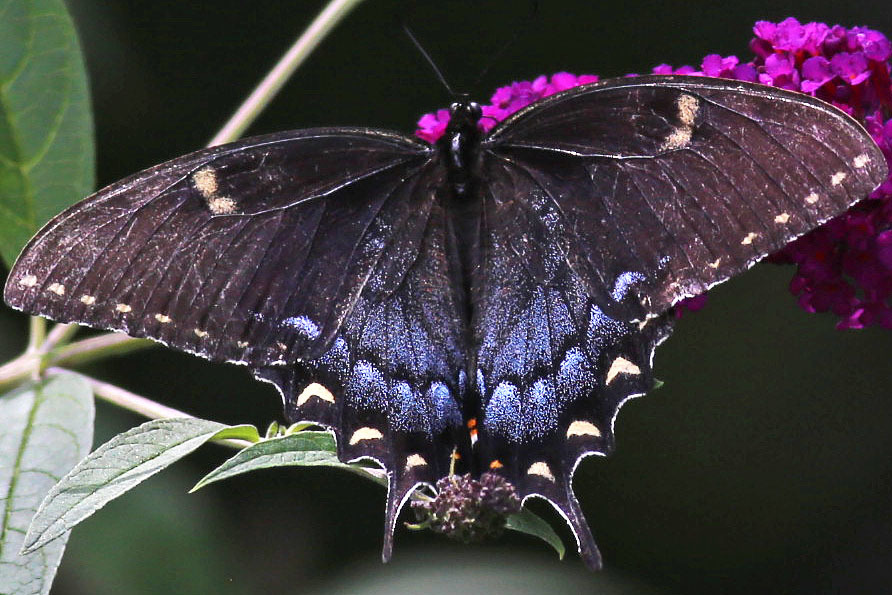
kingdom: Animalia
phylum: Arthropoda
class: Insecta
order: Lepidoptera
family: Papilionidae
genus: Papilio
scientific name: Papilio glaucus
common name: Tiger swallowtail
